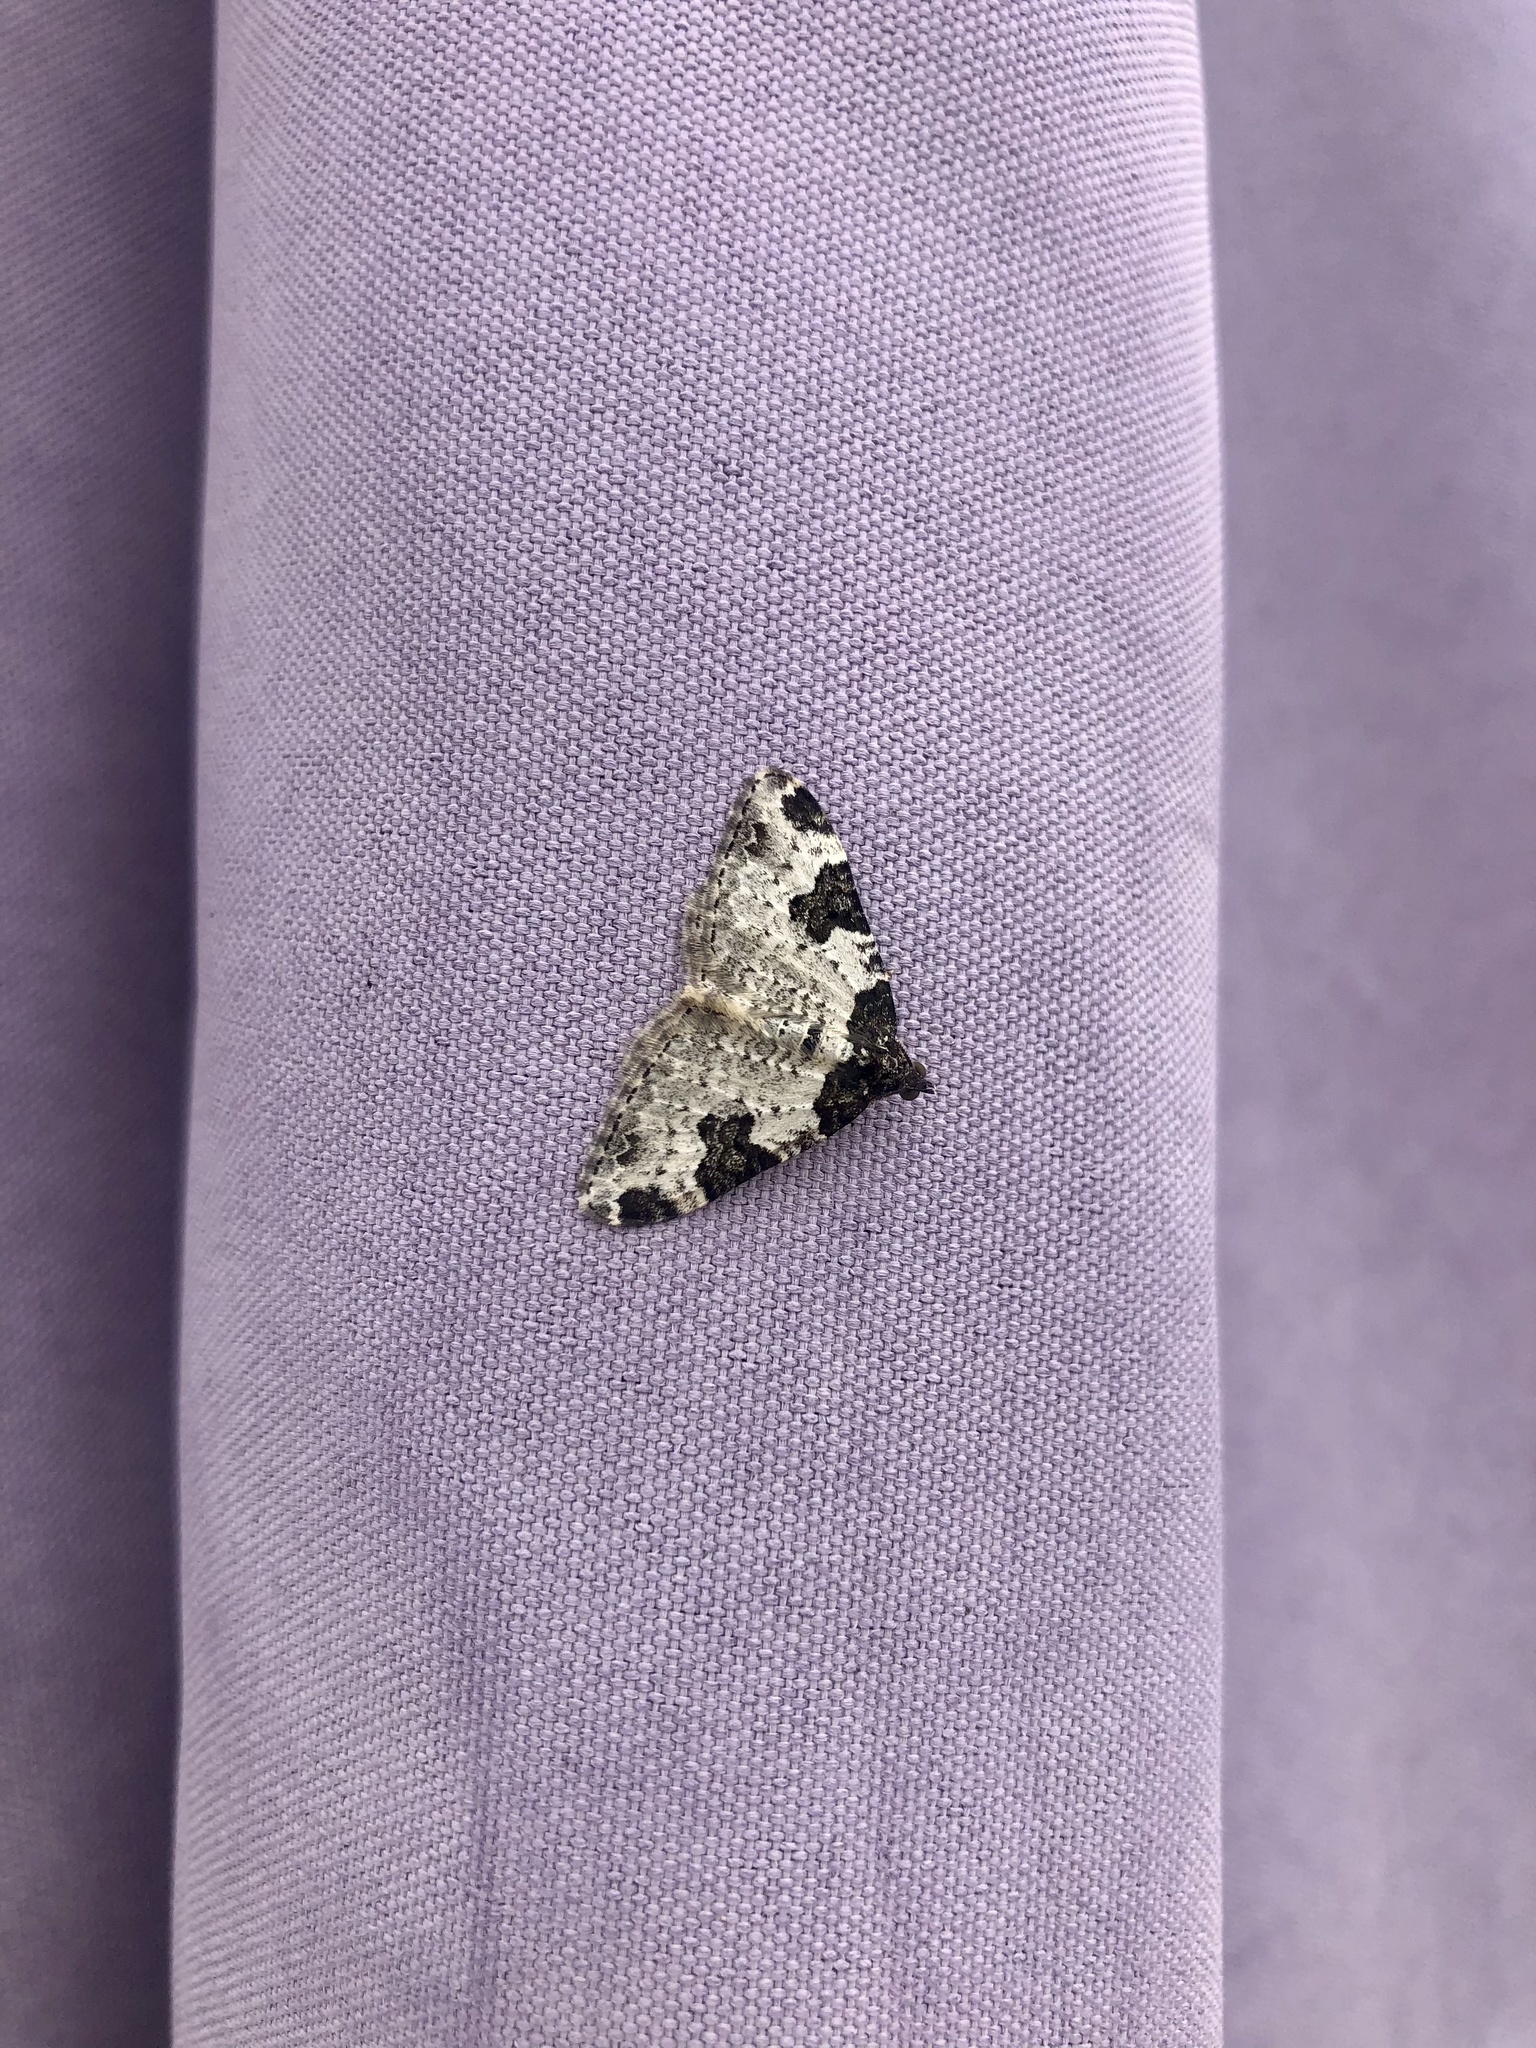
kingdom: Animalia
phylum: Arthropoda
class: Insecta
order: Lepidoptera
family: Geometridae
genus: Xanthorhoe
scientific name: Xanthorhoe fluctuata
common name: Garden carpet
